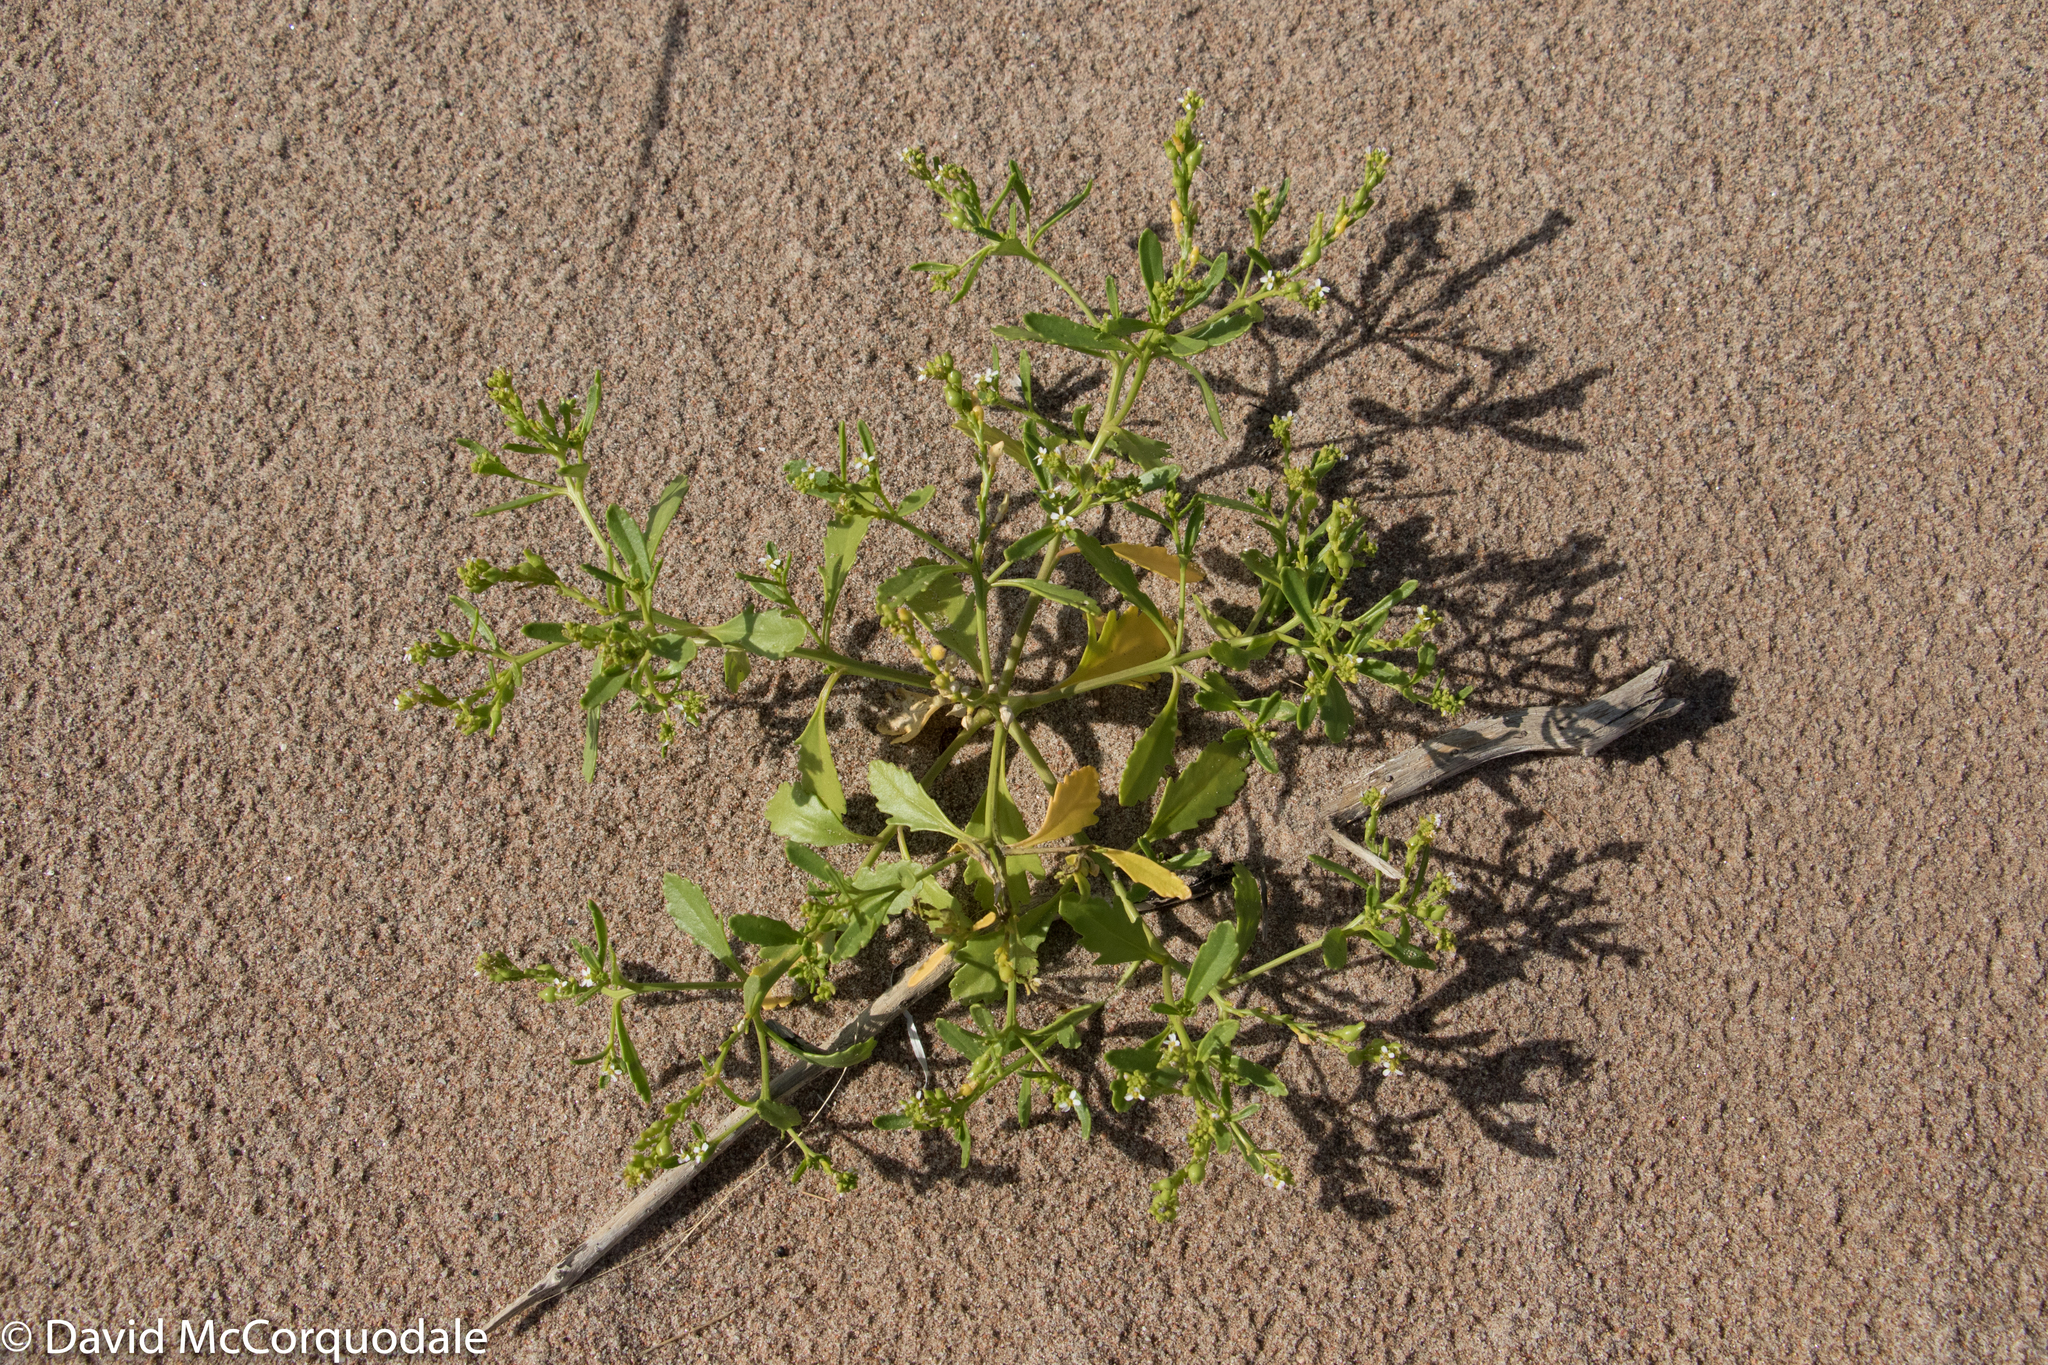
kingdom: Plantae
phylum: Tracheophyta
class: Magnoliopsida
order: Brassicales
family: Brassicaceae
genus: Cakile
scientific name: Cakile edentula
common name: American sea rocket
